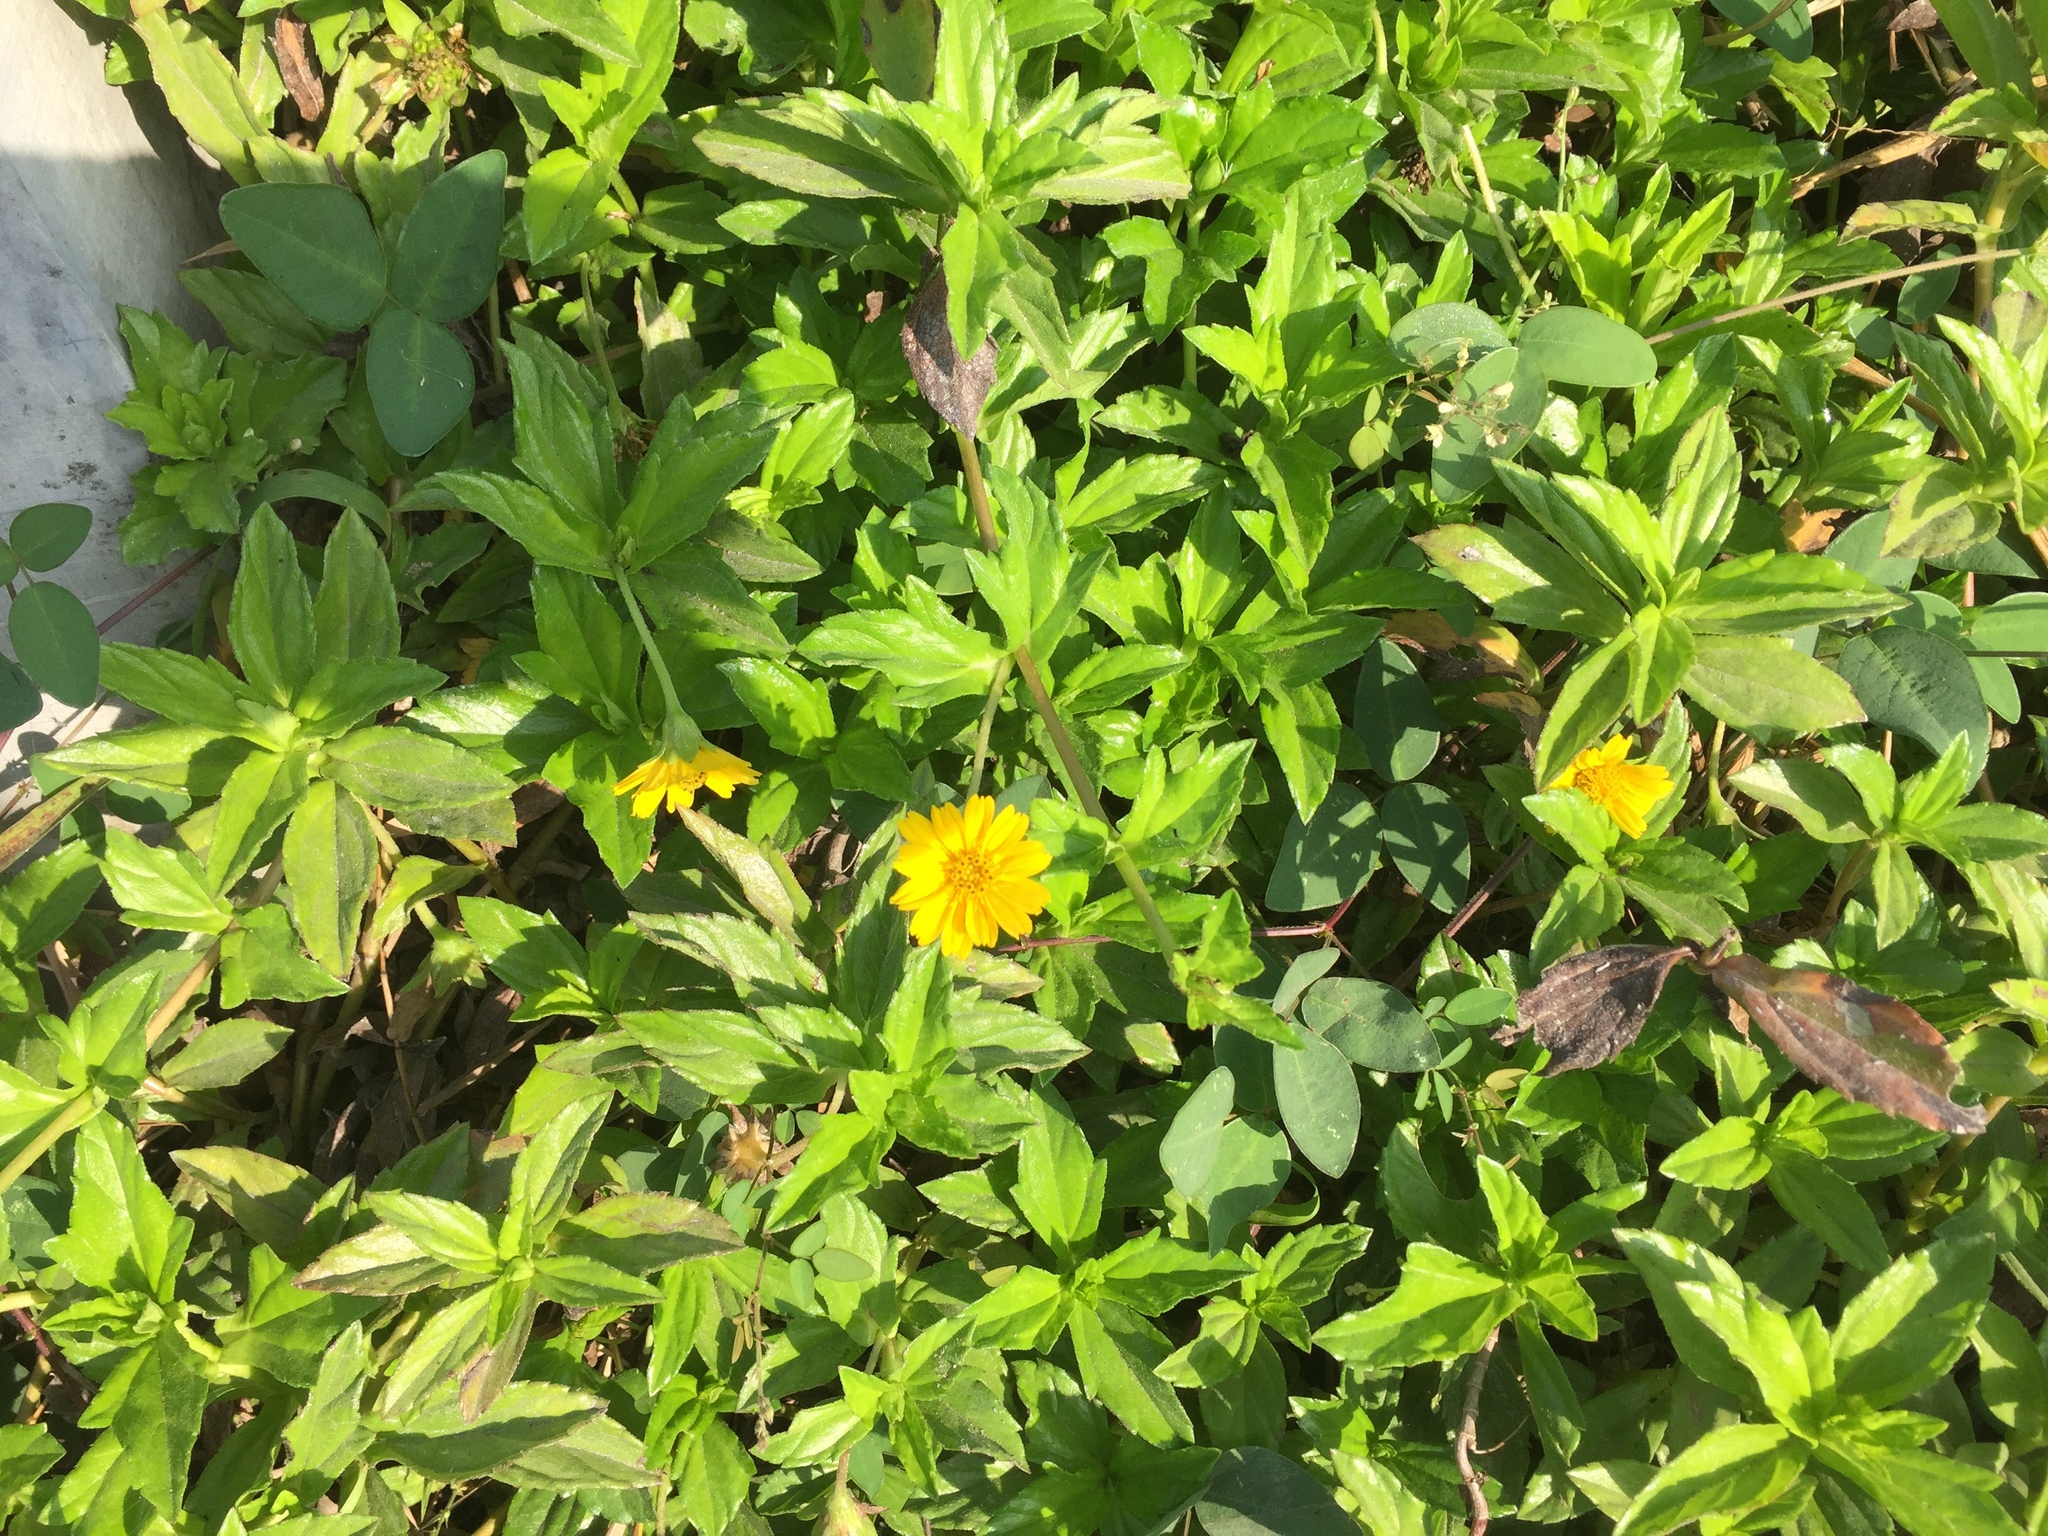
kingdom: Plantae
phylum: Tracheophyta
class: Magnoliopsida
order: Asterales
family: Asteraceae
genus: Sphagneticola
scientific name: Sphagneticola trilobata
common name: Bay biscayne creeping-oxeye
